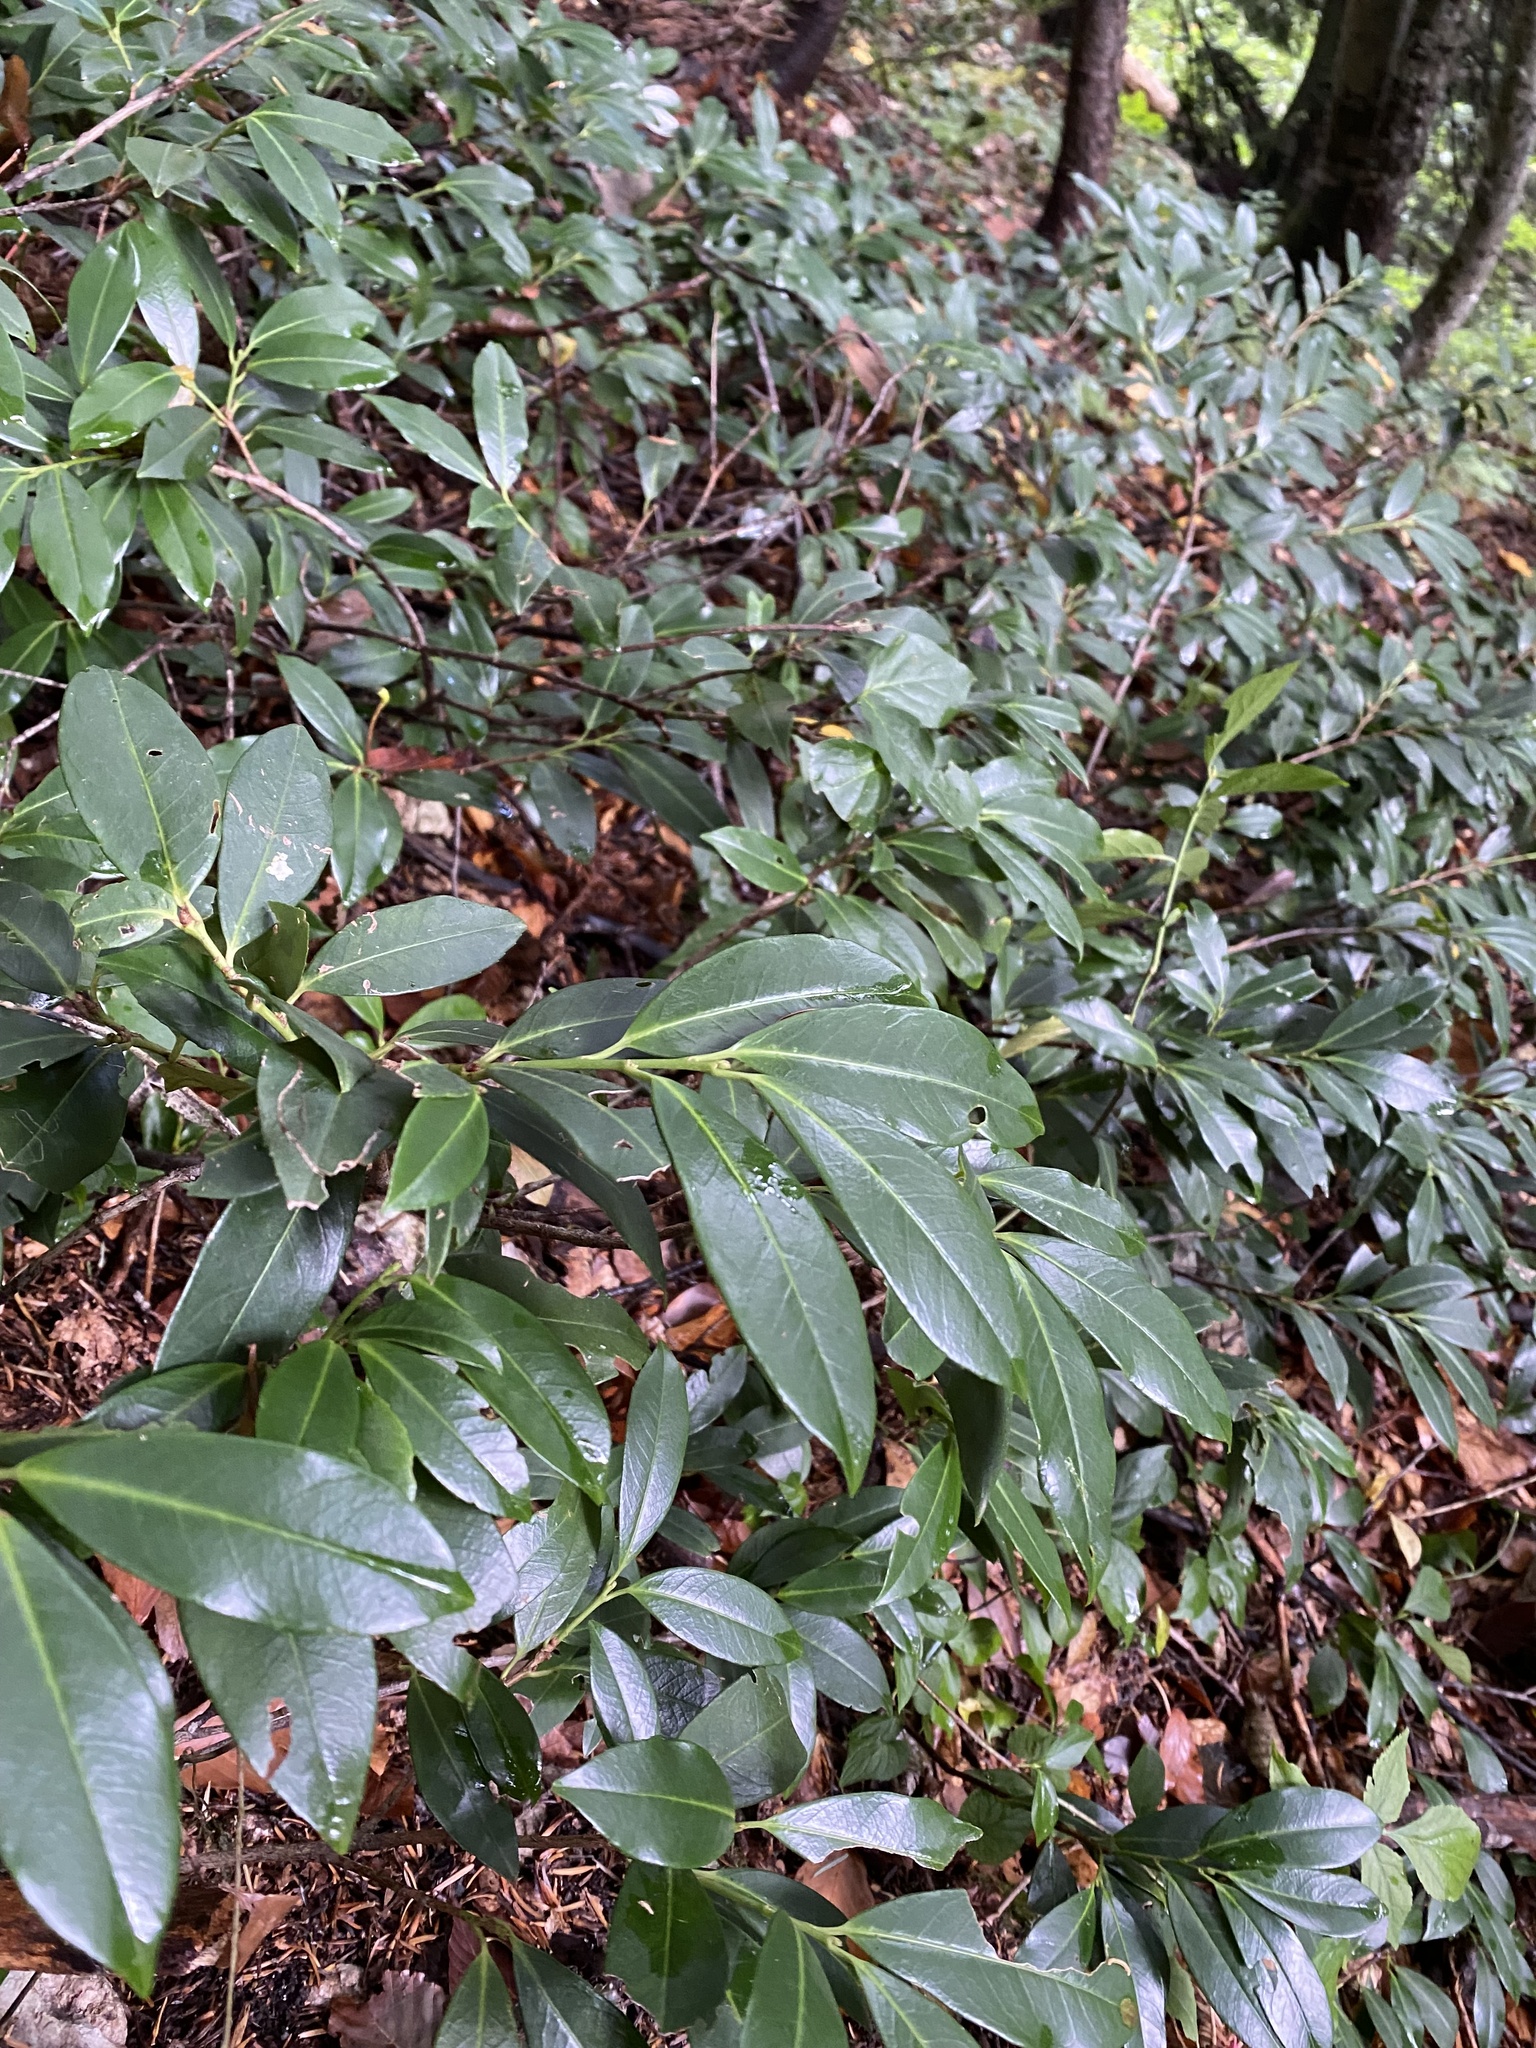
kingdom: Plantae
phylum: Tracheophyta
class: Magnoliopsida
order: Rosales
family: Rosaceae
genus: Prunus
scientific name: Prunus laurocerasus
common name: Cherry laurel
